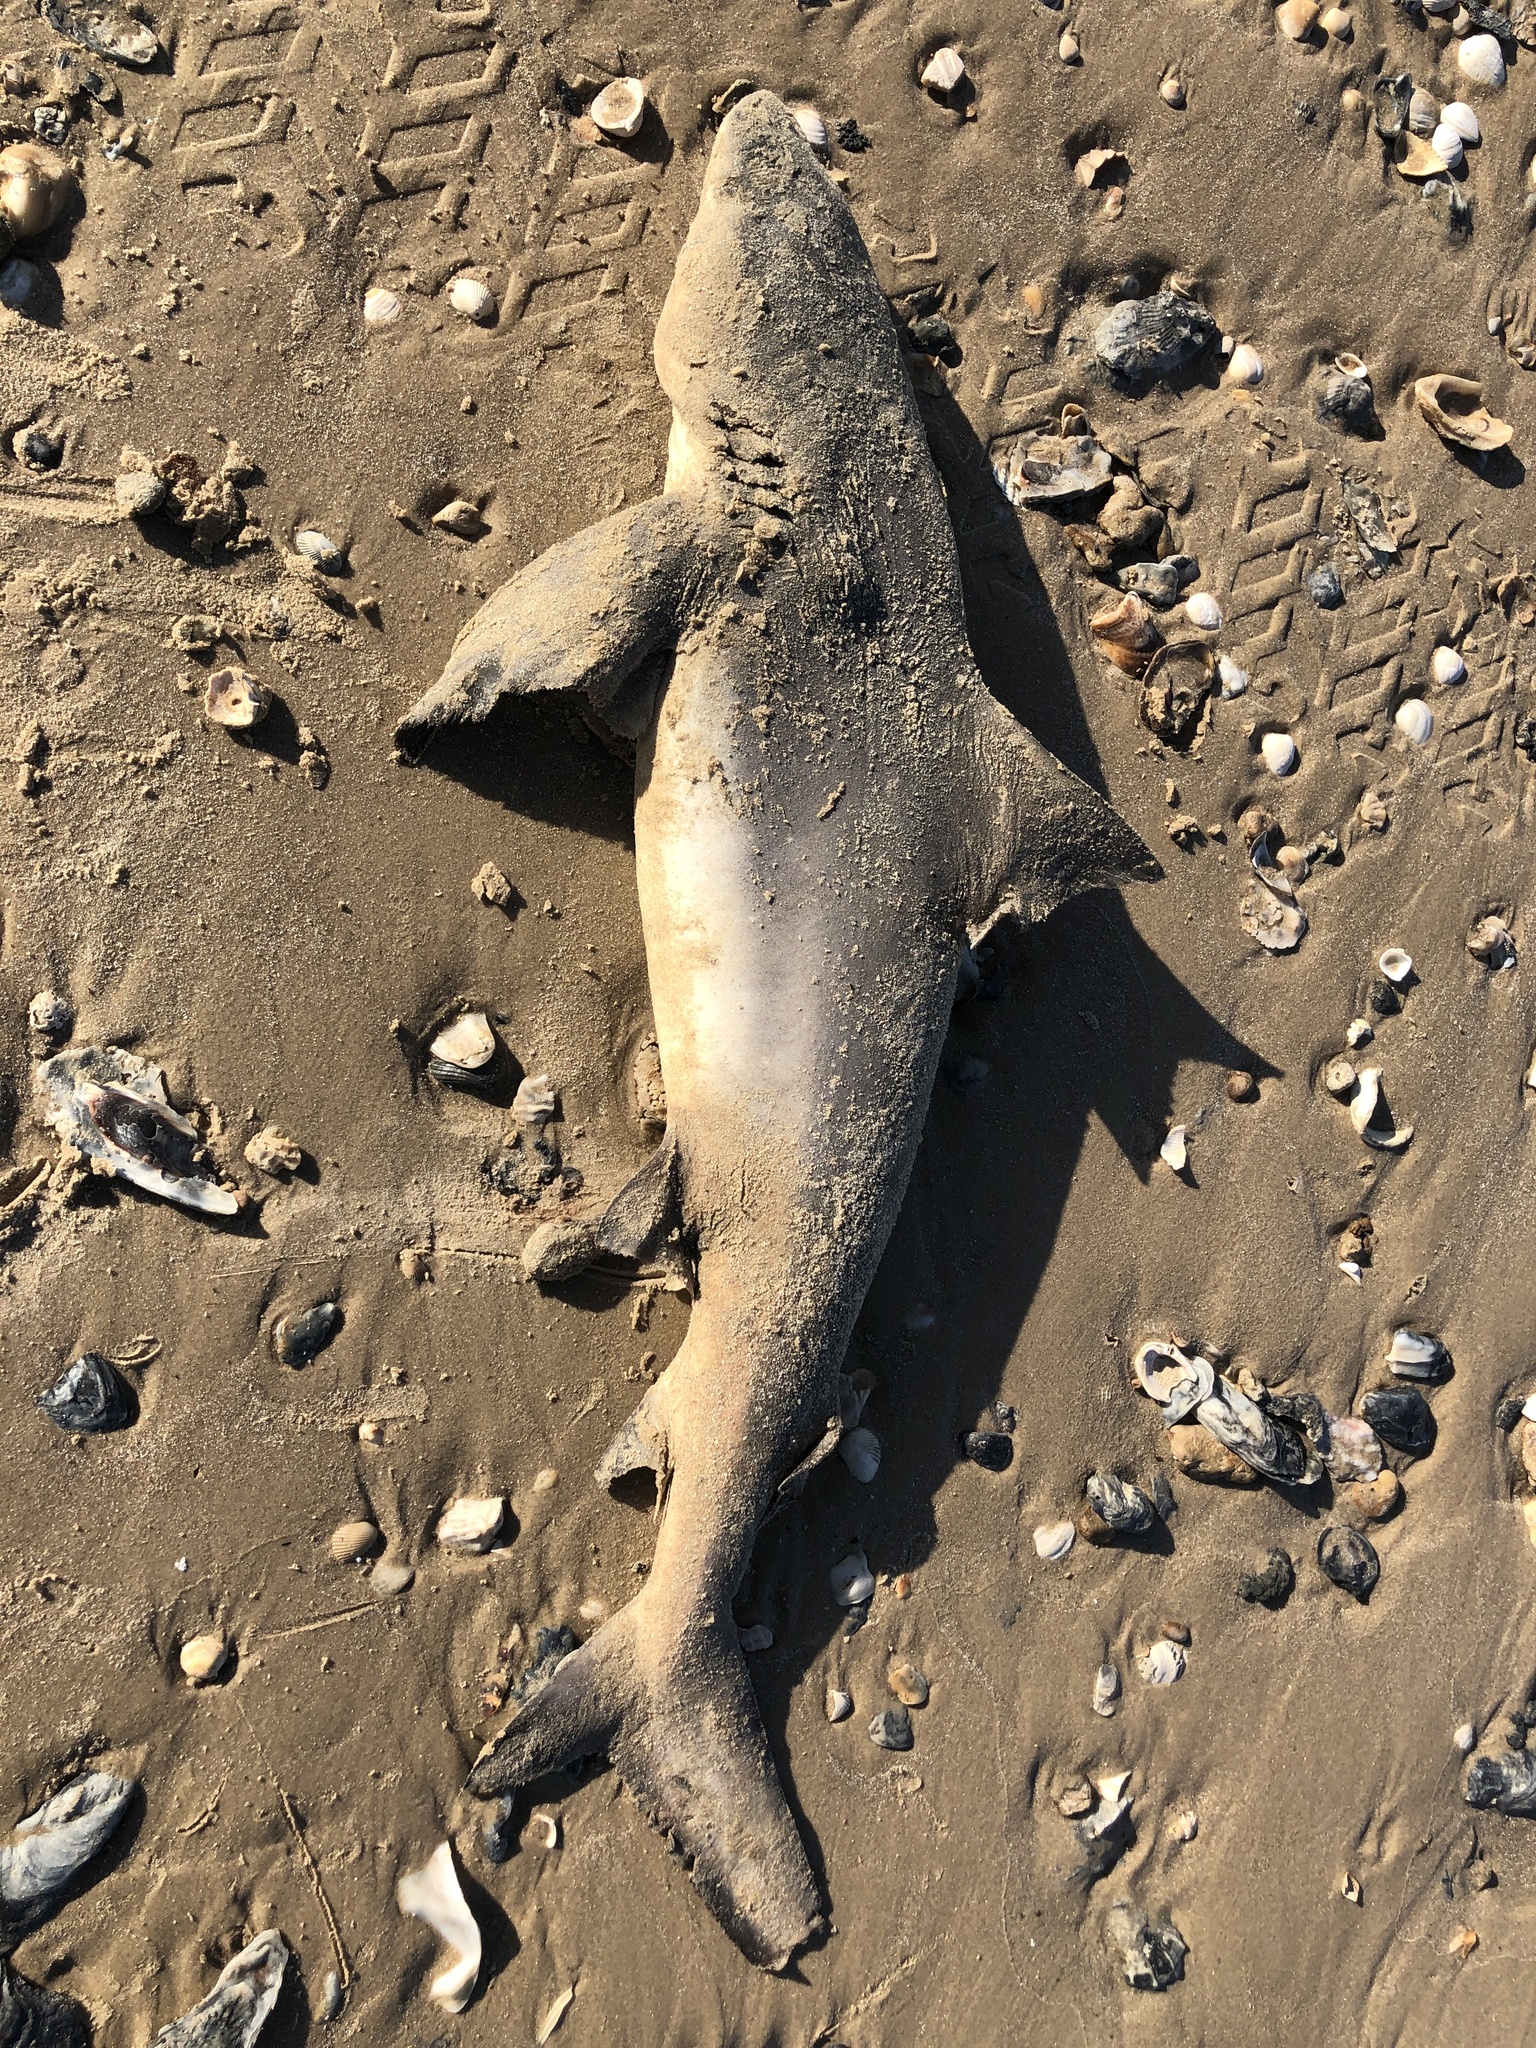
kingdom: Animalia
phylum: Chordata
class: Elasmobranchii
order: Carcharhiniformes
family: Carcharhinidae
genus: Carcharhinus
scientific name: Carcharhinus leucas
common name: Bull shark
